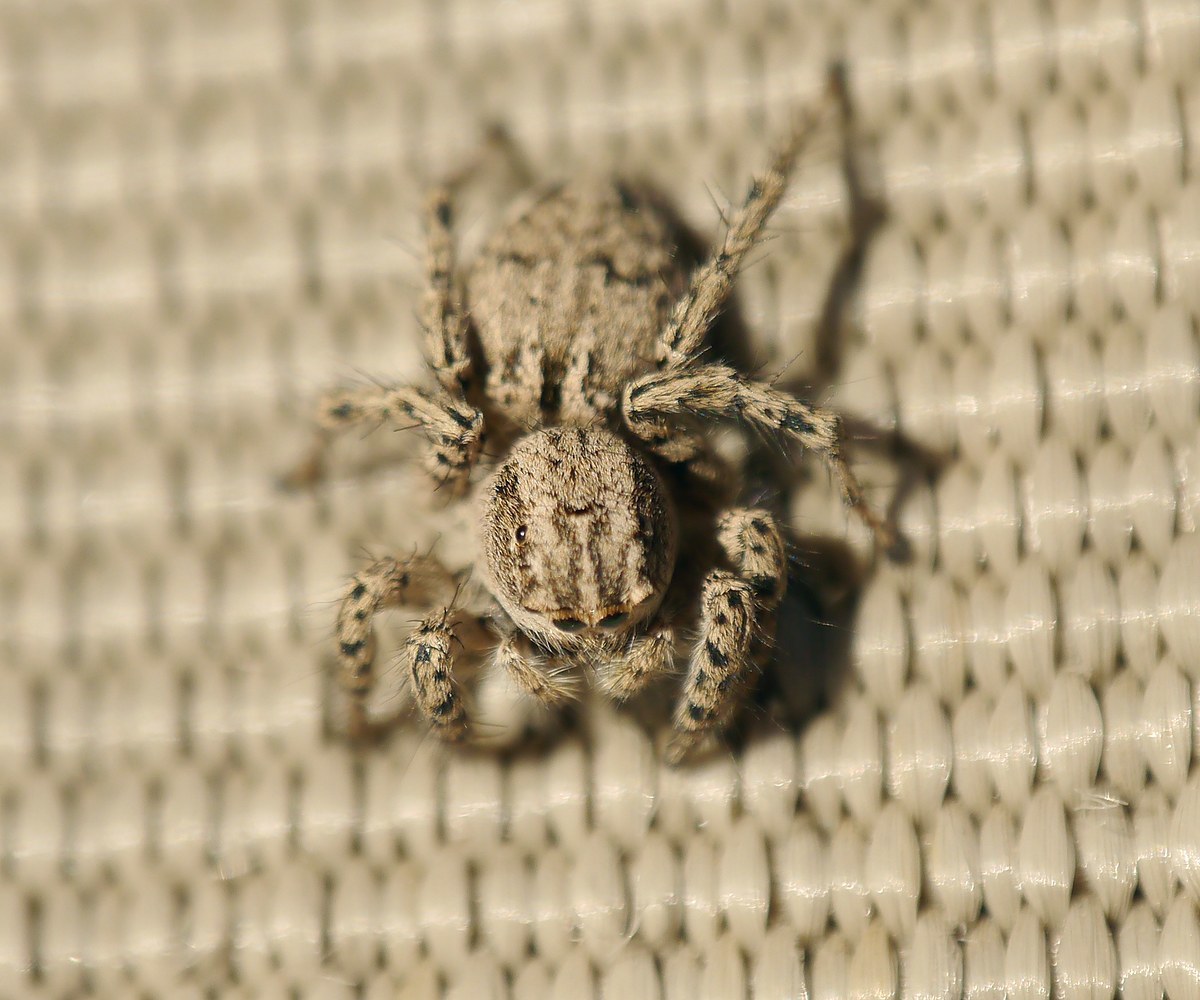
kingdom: Animalia
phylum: Arthropoda
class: Arachnida
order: Araneae
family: Salticidae
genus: Aelurillus
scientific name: Aelurillus m-nigrum
